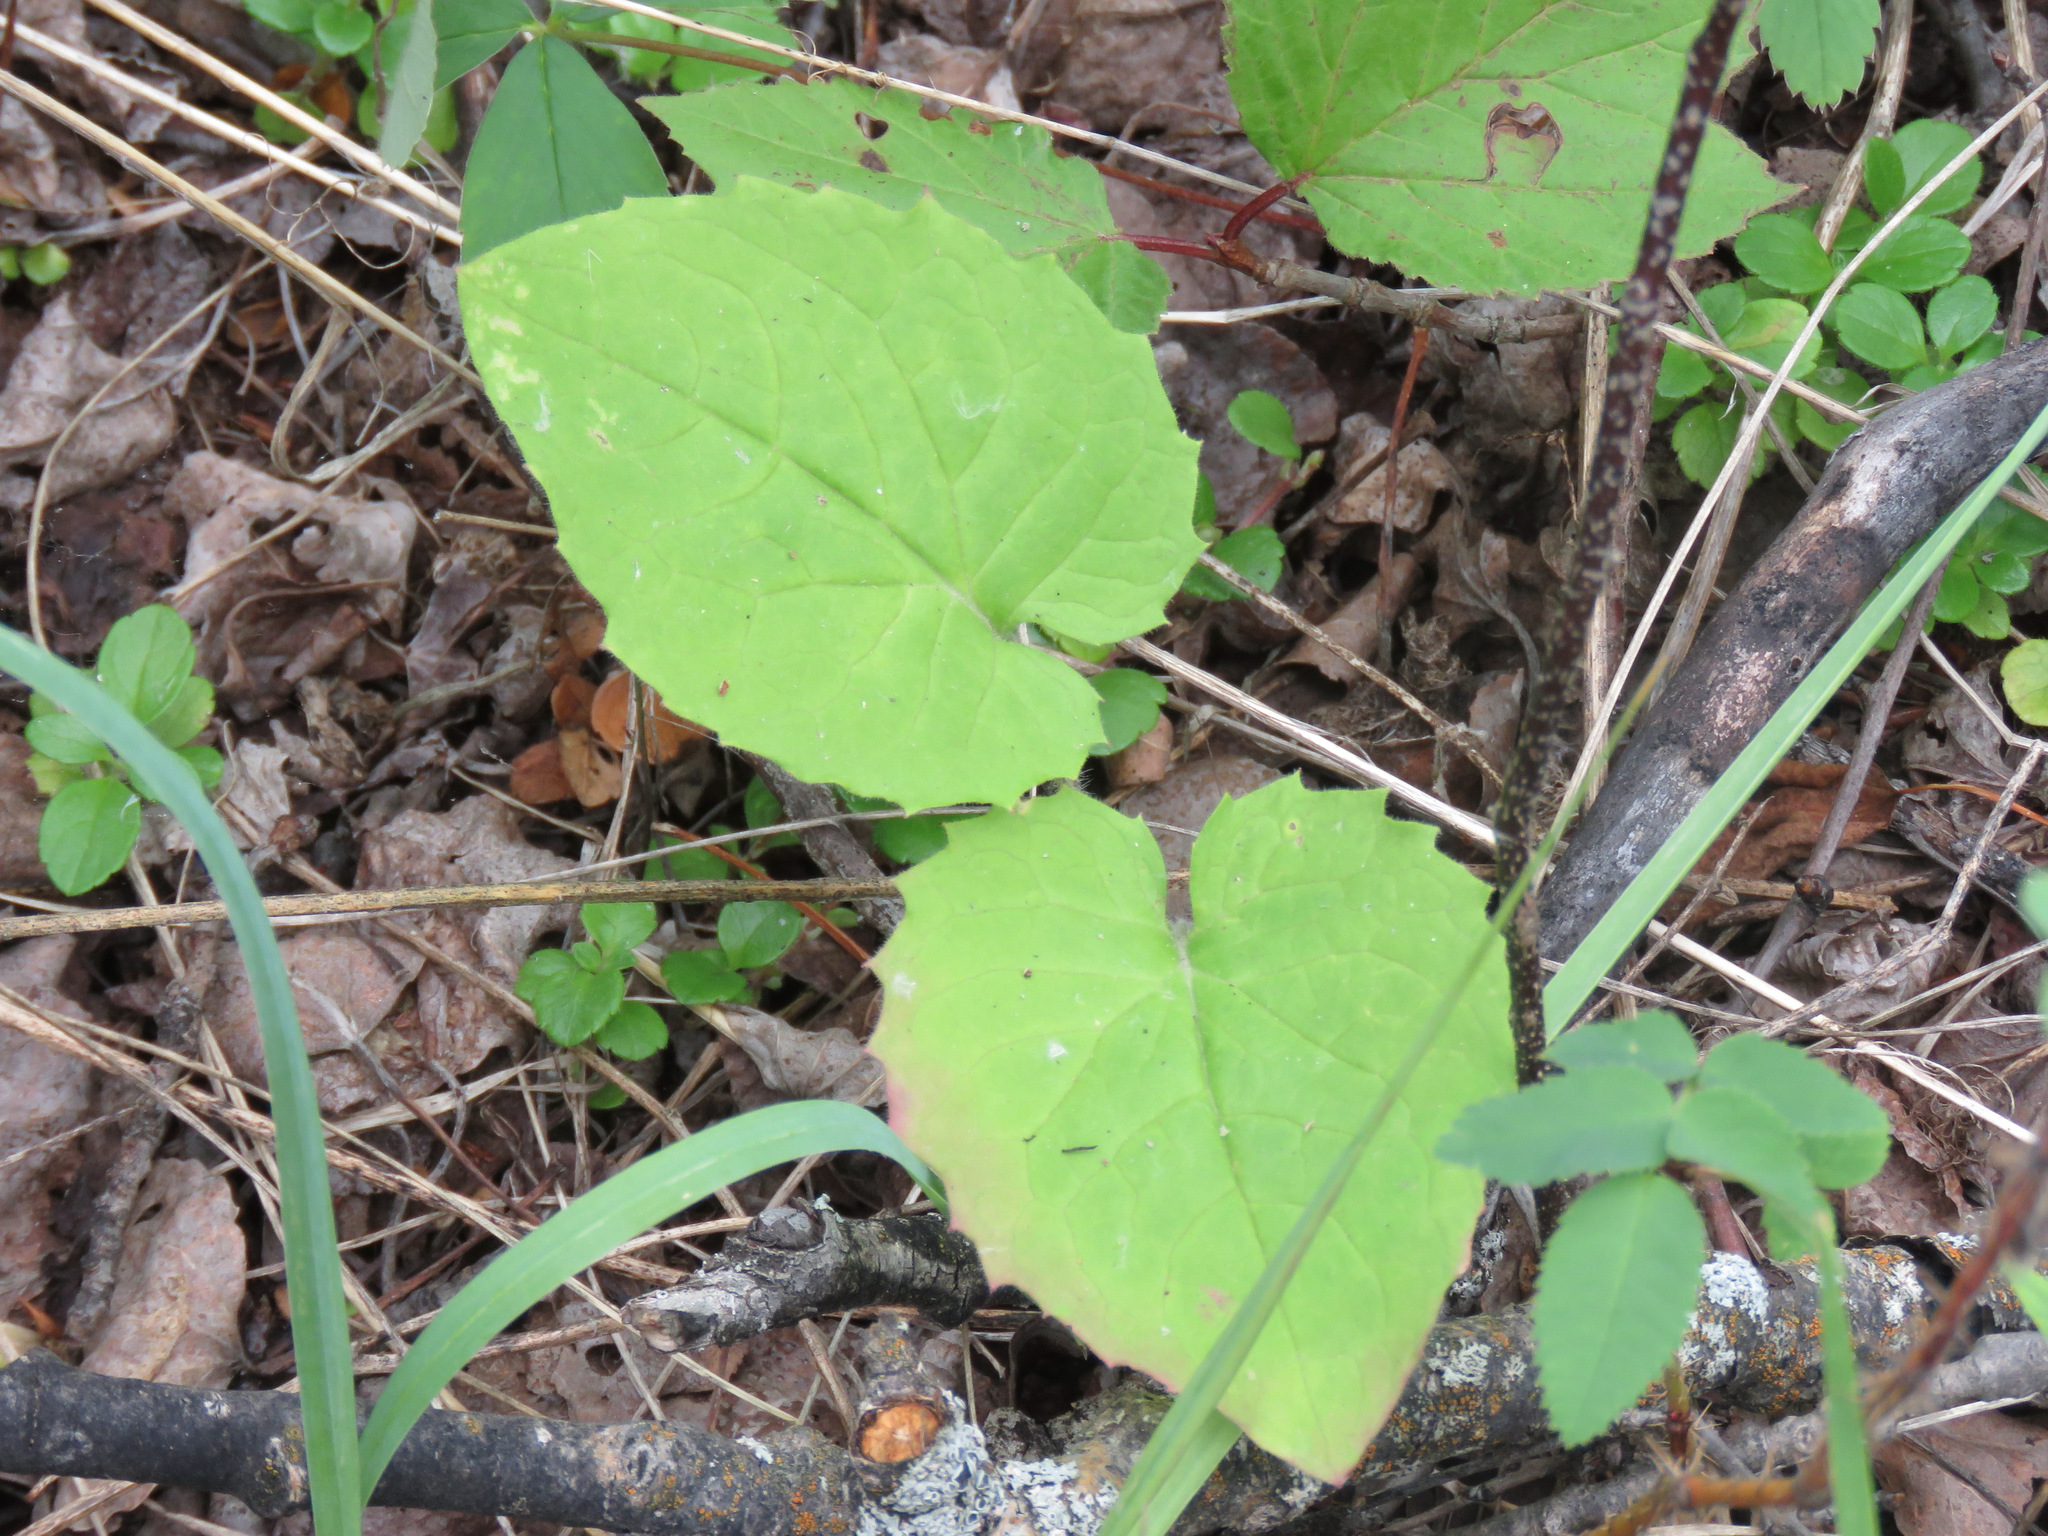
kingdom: Plantae
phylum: Tracheophyta
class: Magnoliopsida
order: Asterales
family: Asteraceae
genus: Arnica
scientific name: Arnica cordifolia
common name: Heart-leaf arnica
